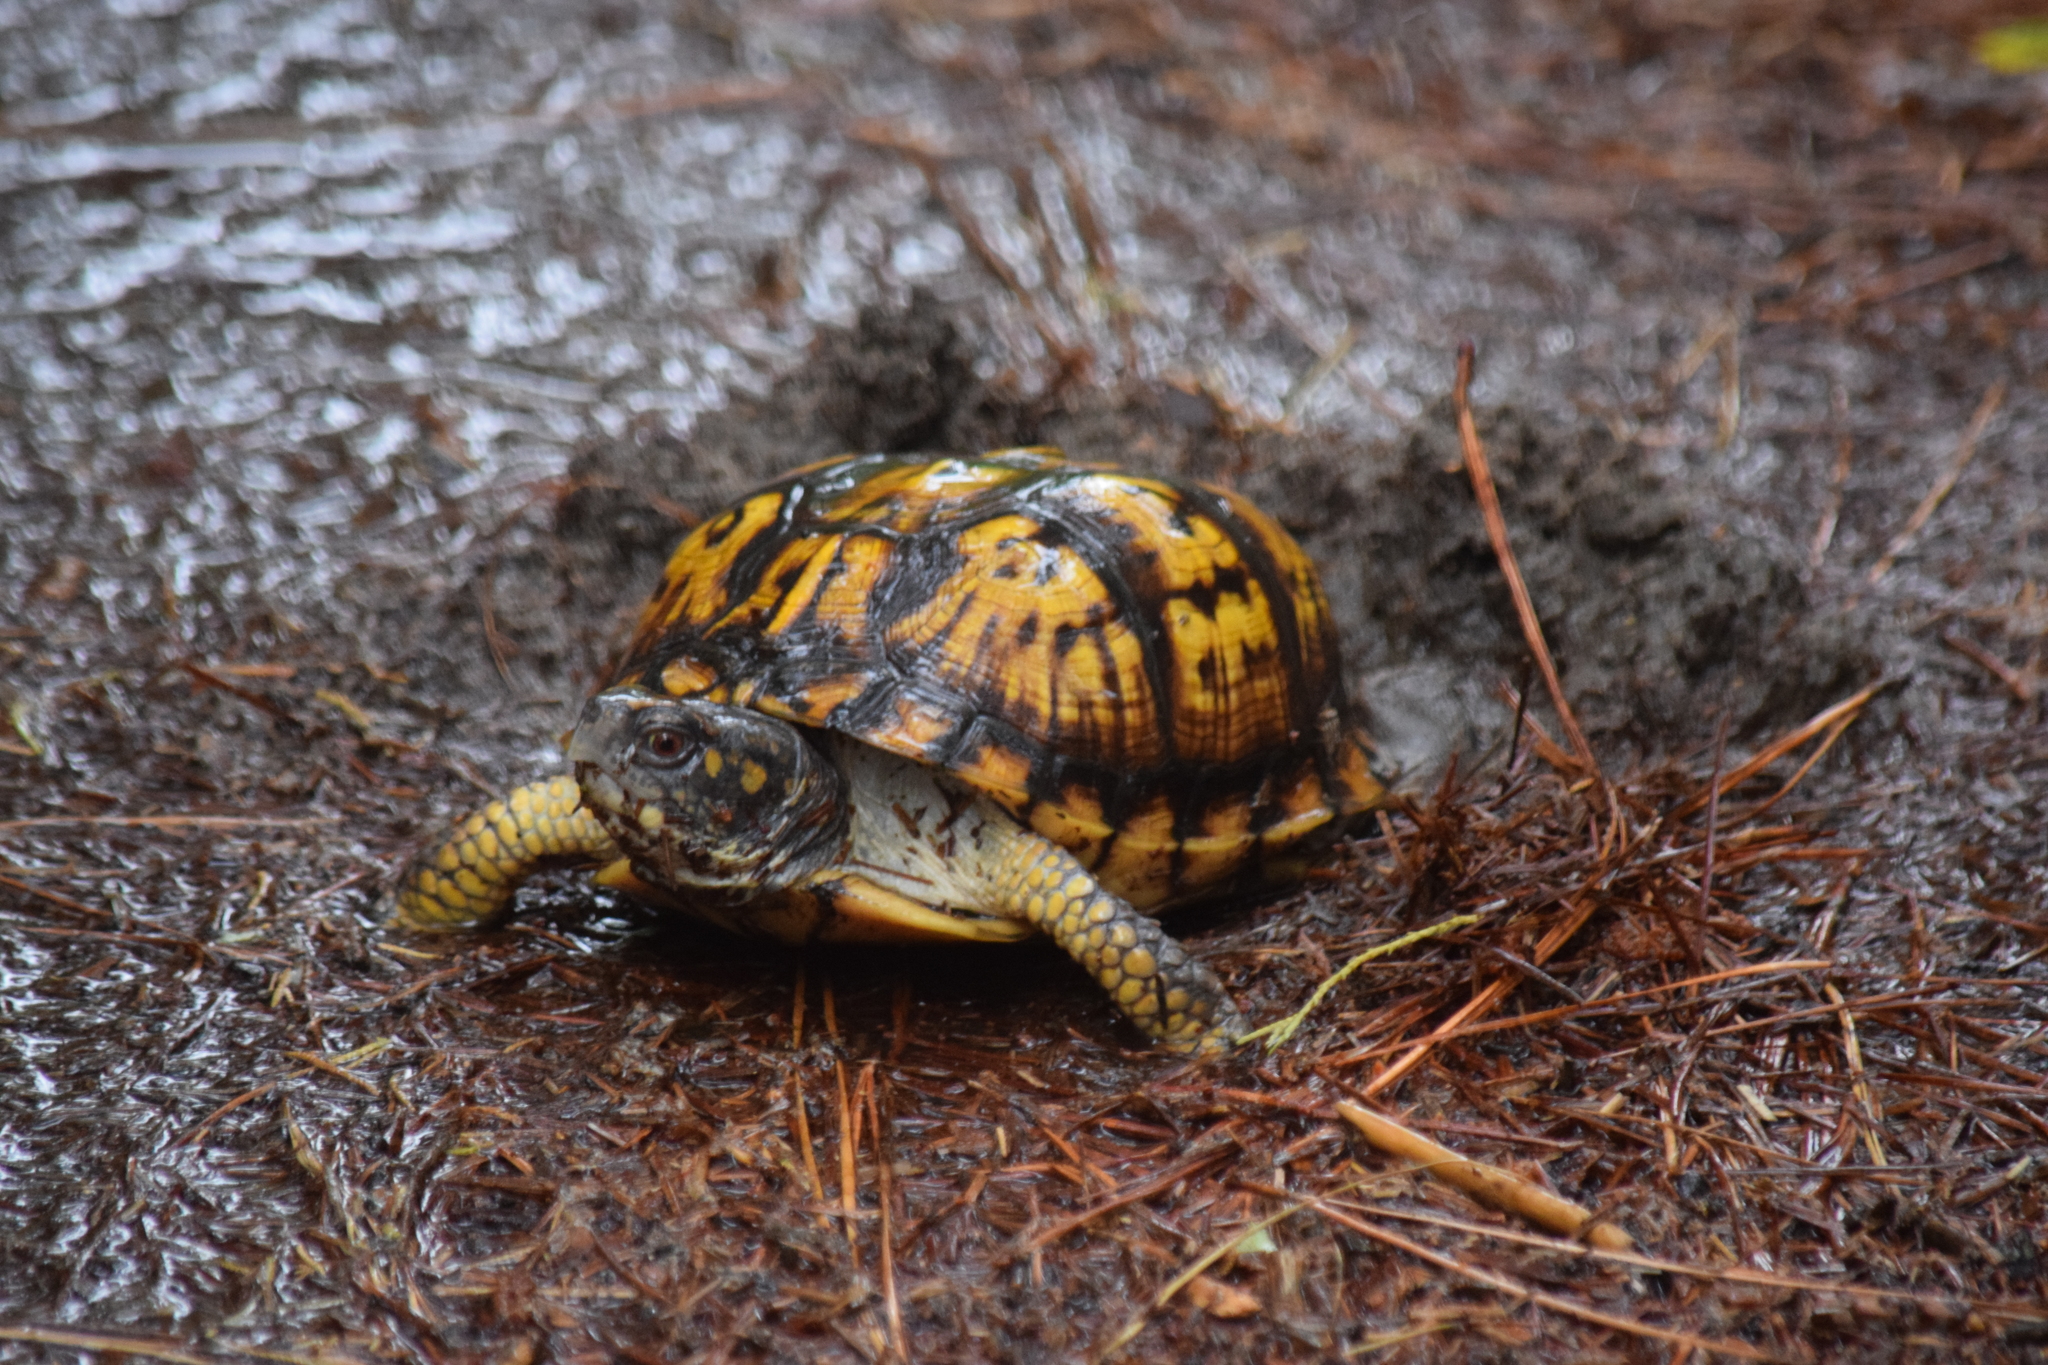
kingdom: Animalia
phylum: Chordata
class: Testudines
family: Emydidae
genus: Terrapene
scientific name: Terrapene carolina
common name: Common box turtle
